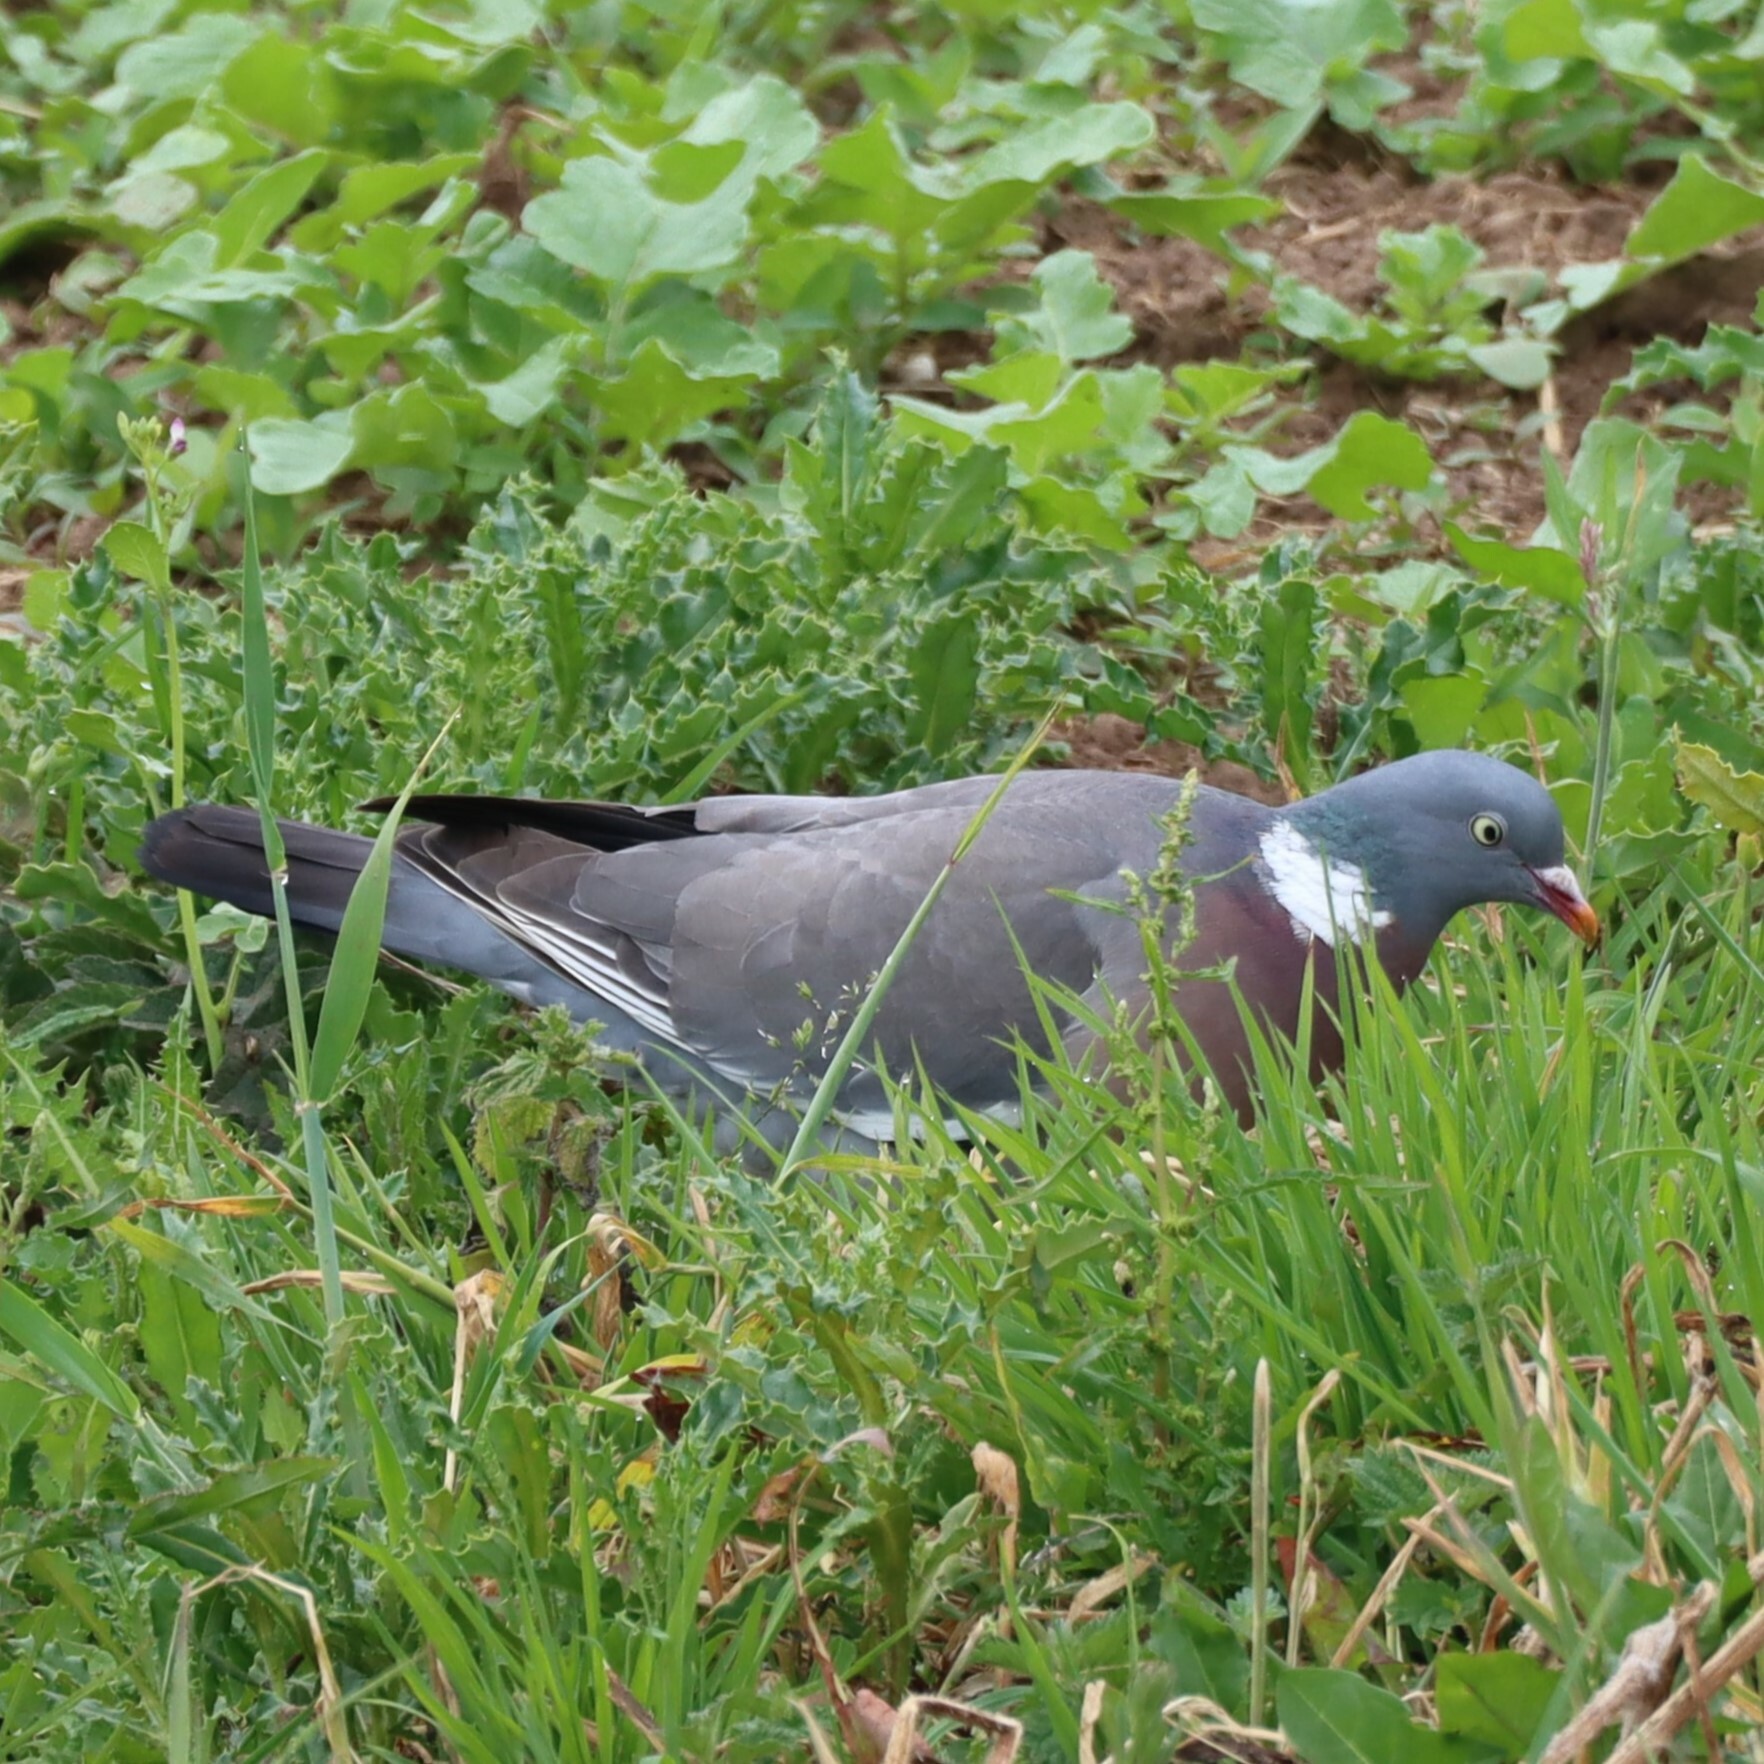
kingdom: Animalia
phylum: Chordata
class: Aves
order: Columbiformes
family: Columbidae
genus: Columba
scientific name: Columba palumbus
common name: Common wood pigeon
